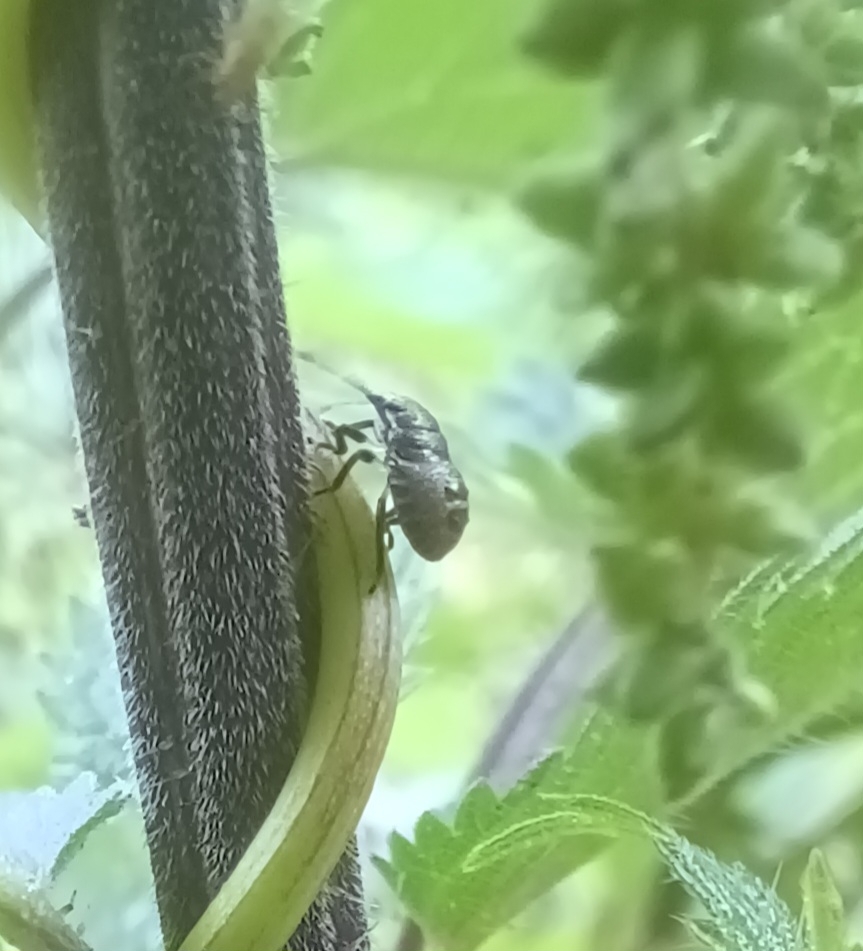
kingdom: Animalia
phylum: Arthropoda
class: Insecta
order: Hemiptera
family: Pentatomidae
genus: Rhaphigaster
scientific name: Rhaphigaster nebulosa
